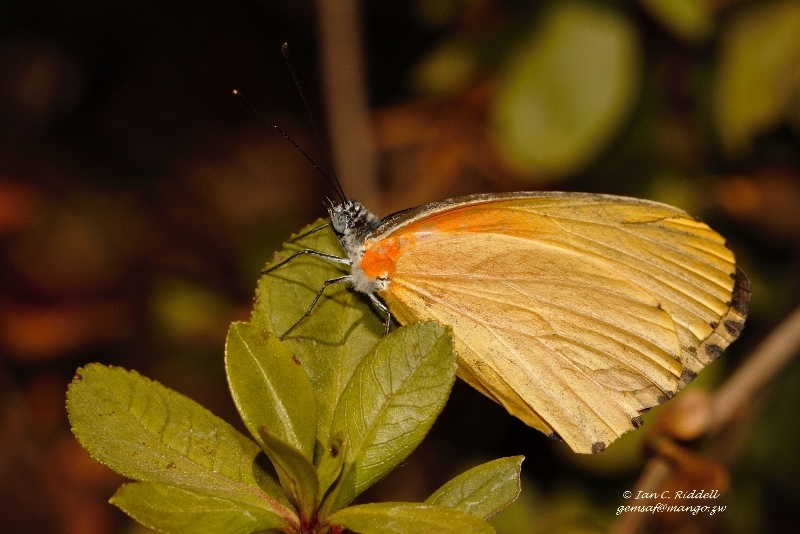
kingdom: Animalia
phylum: Arthropoda
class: Insecta
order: Lepidoptera
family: Pieridae
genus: Mylothris
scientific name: Mylothris agathina
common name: Eastern dotted border
